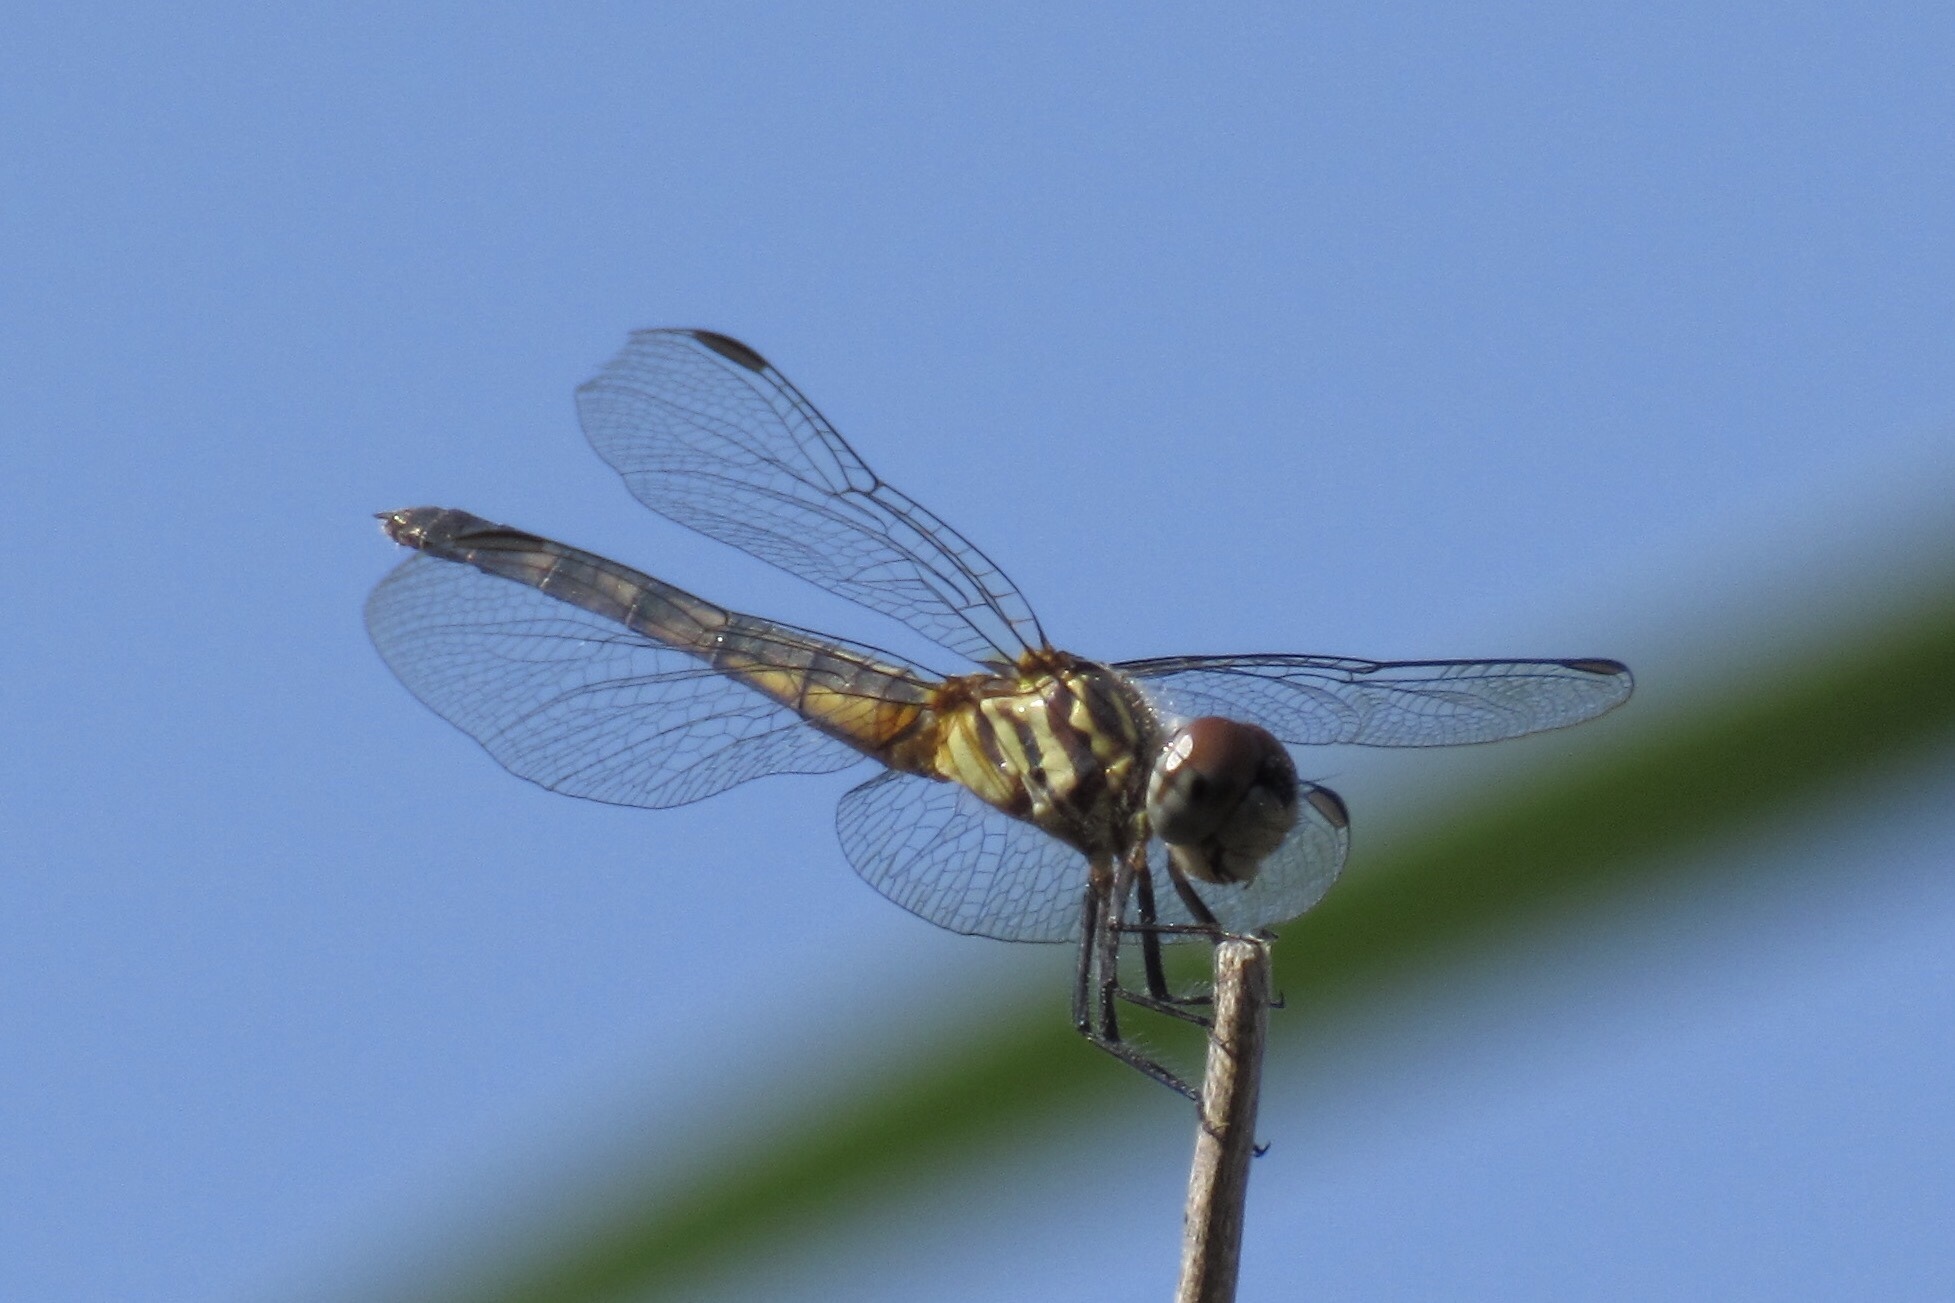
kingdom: Animalia
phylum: Arthropoda
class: Insecta
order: Odonata
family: Libellulidae
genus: Pachydiplax
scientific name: Pachydiplax longipennis
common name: Blue dasher
